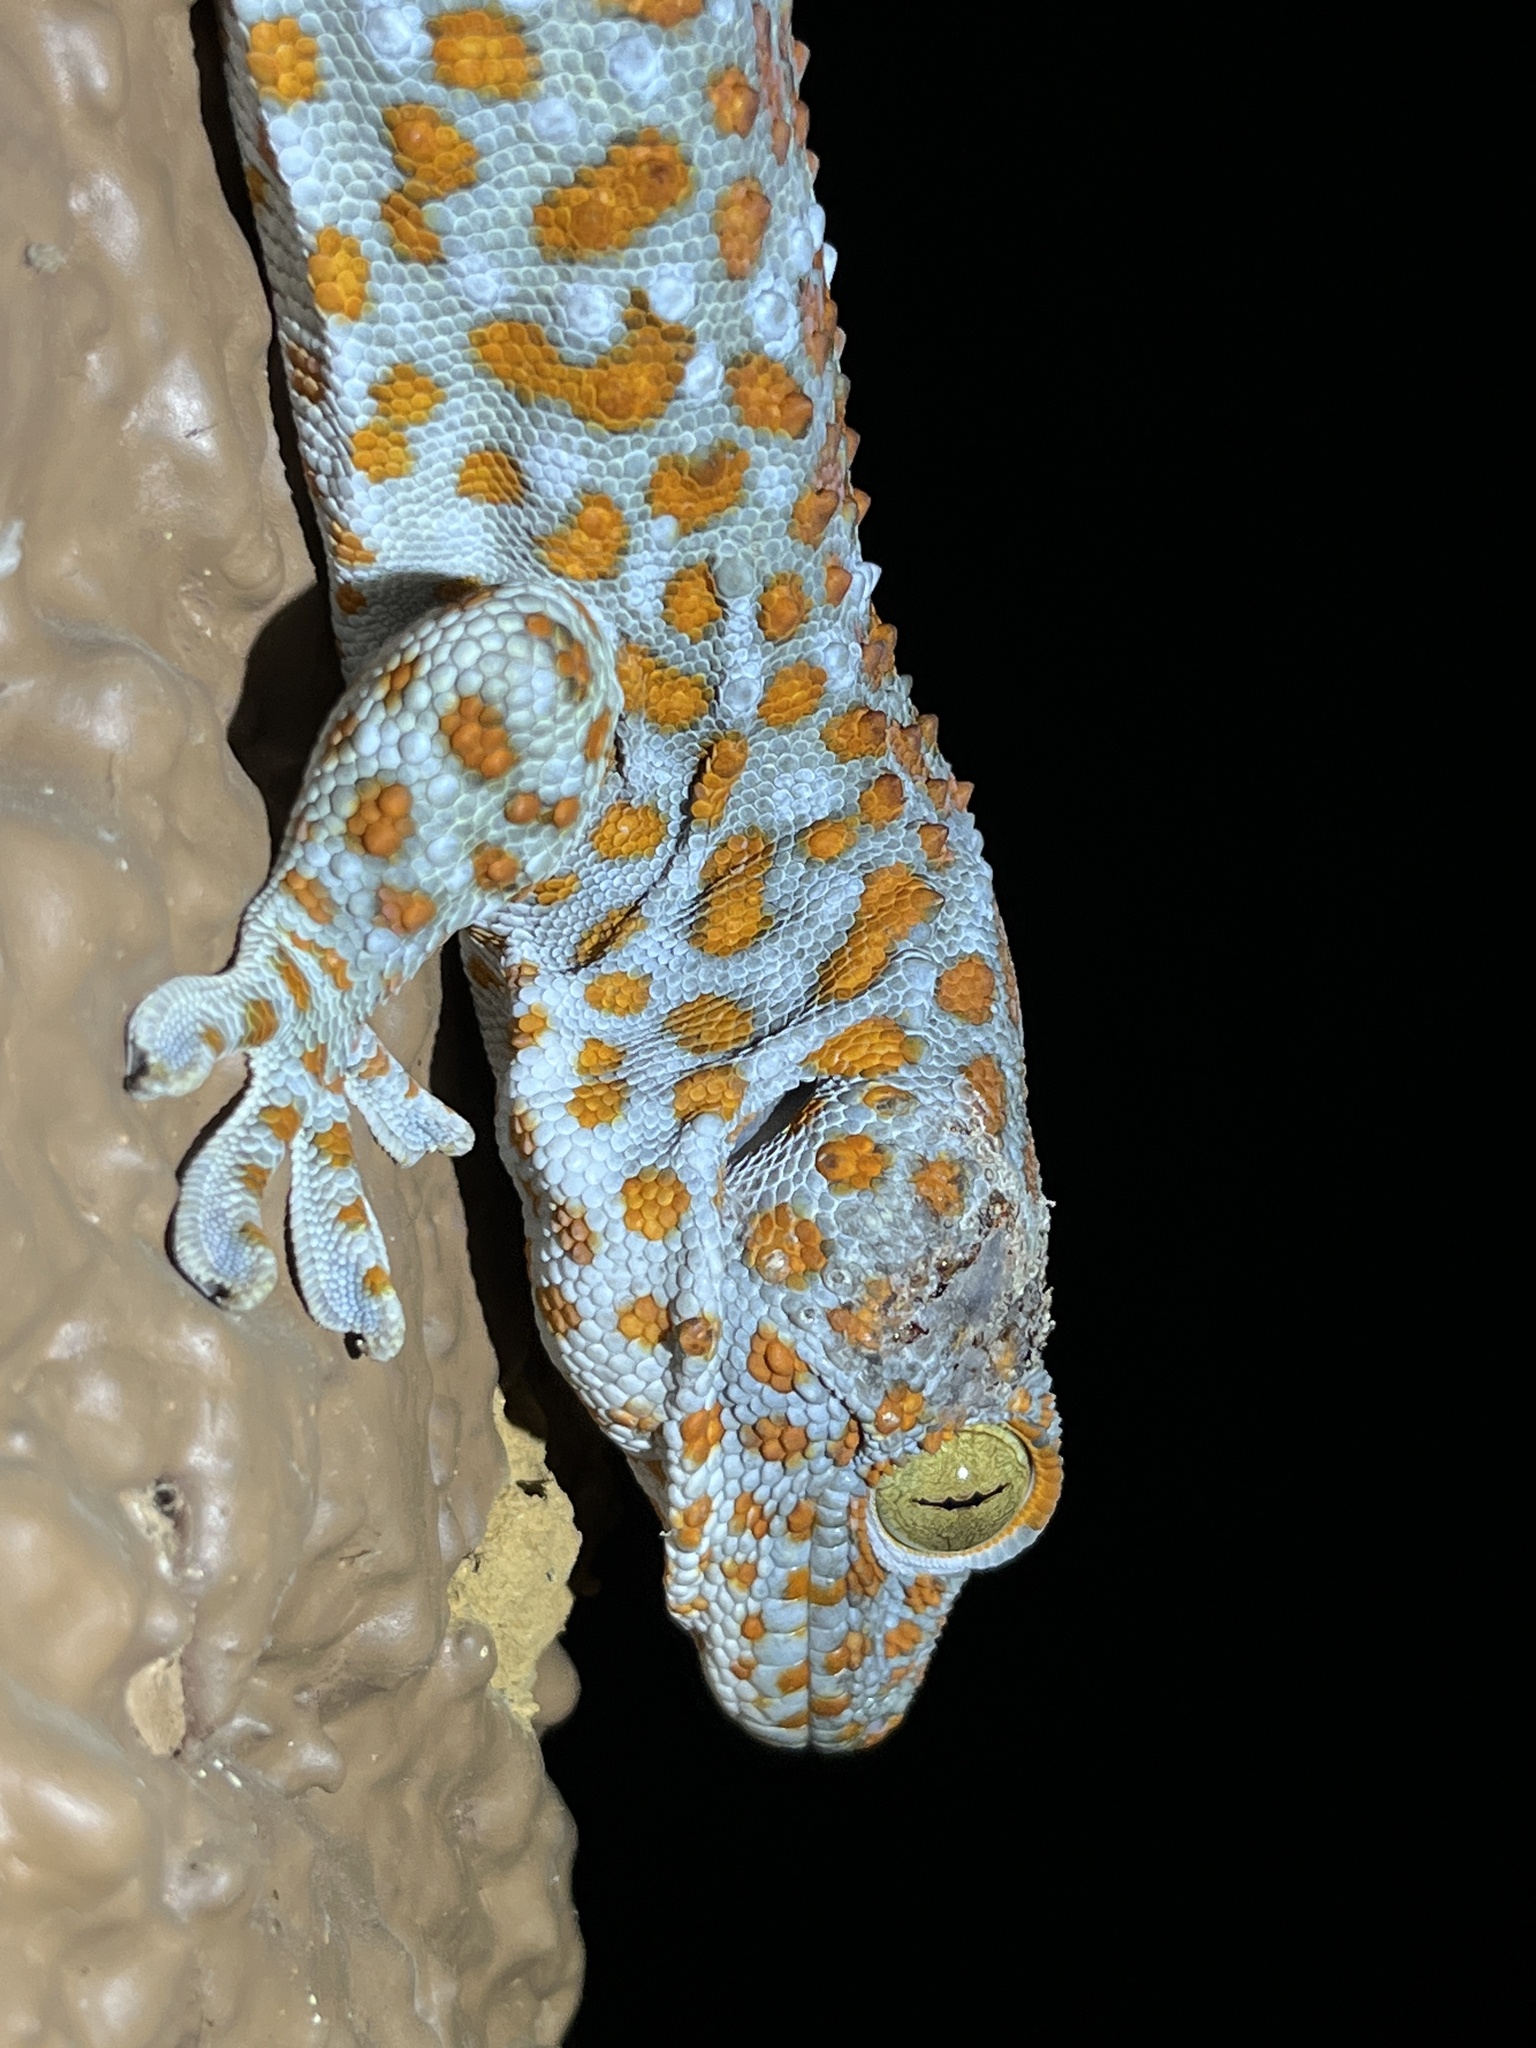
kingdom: Animalia
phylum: Chordata
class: Squamata
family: Gekkonidae
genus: Gekko
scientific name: Gekko gecko
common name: Tokay gecko
